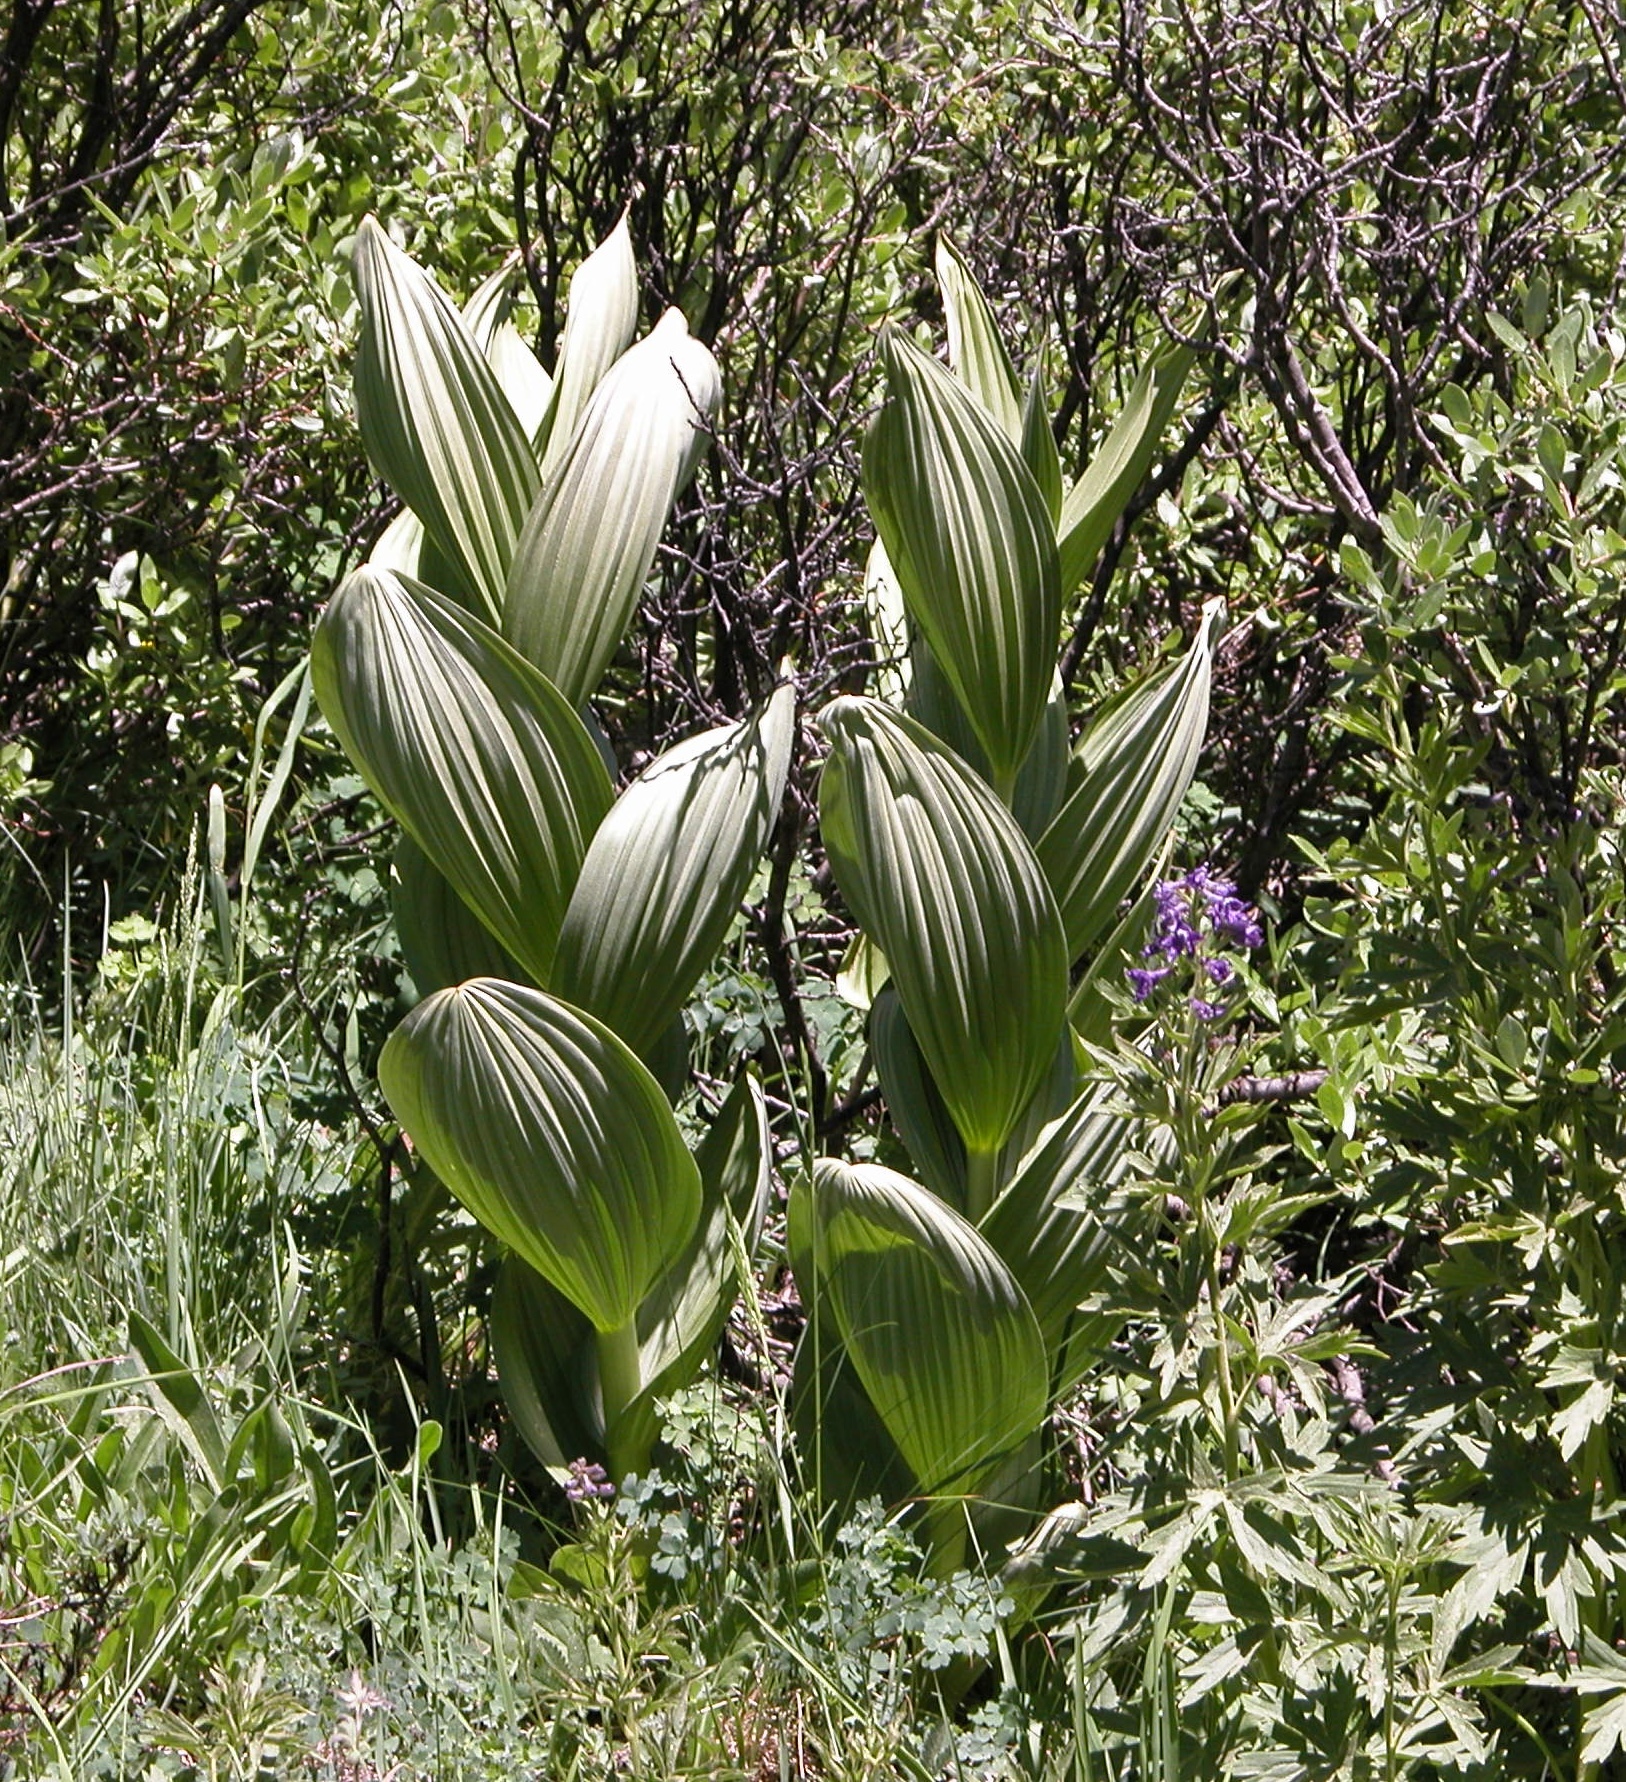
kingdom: Plantae
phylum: Tracheophyta
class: Liliopsida
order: Liliales
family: Melanthiaceae
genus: Veratrum
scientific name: Veratrum californicum
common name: California veratrum
